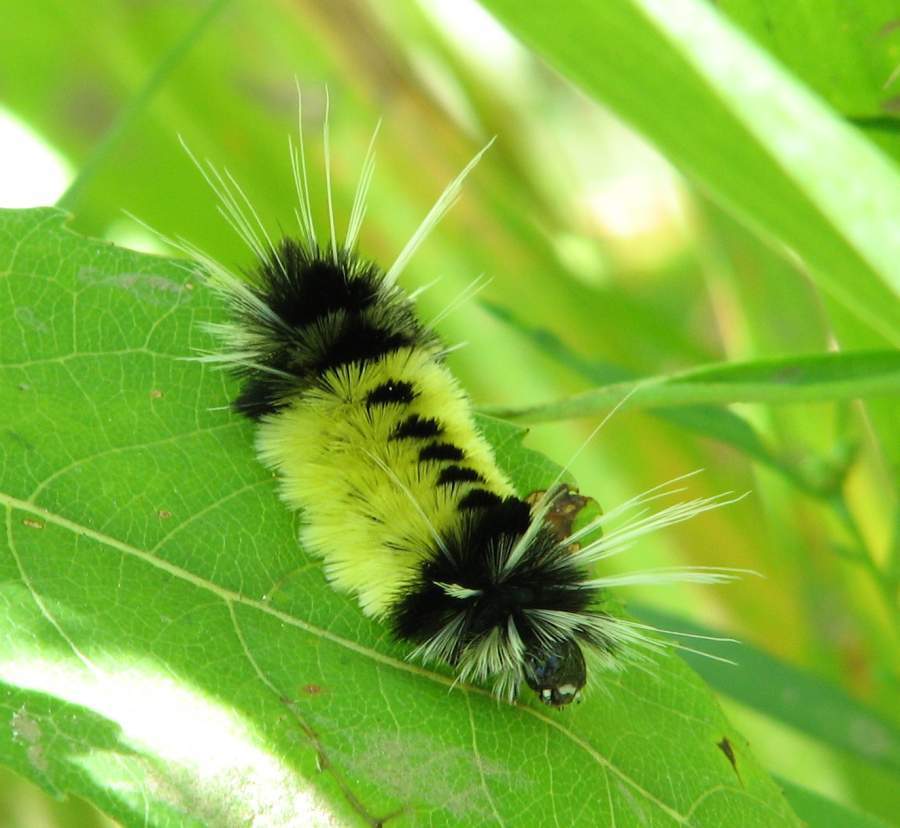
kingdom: Animalia
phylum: Arthropoda
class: Insecta
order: Lepidoptera
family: Erebidae
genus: Lophocampa
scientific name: Lophocampa maculata
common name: Spotted tussock moth
